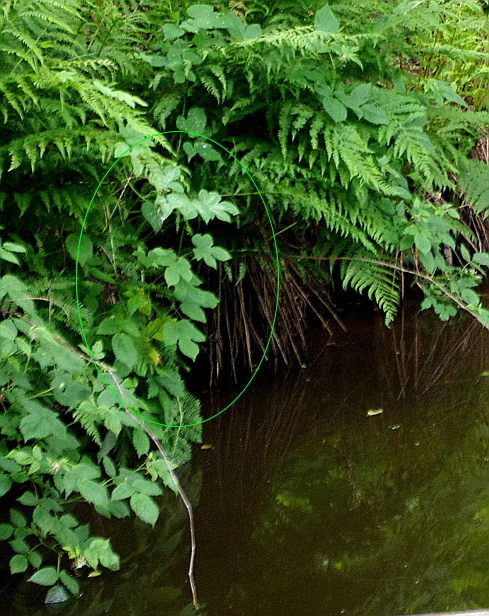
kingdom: Plantae
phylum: Tracheophyta
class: Magnoliopsida
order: Rosales
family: Cannabaceae
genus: Humulus
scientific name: Humulus lupulus
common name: Hop
